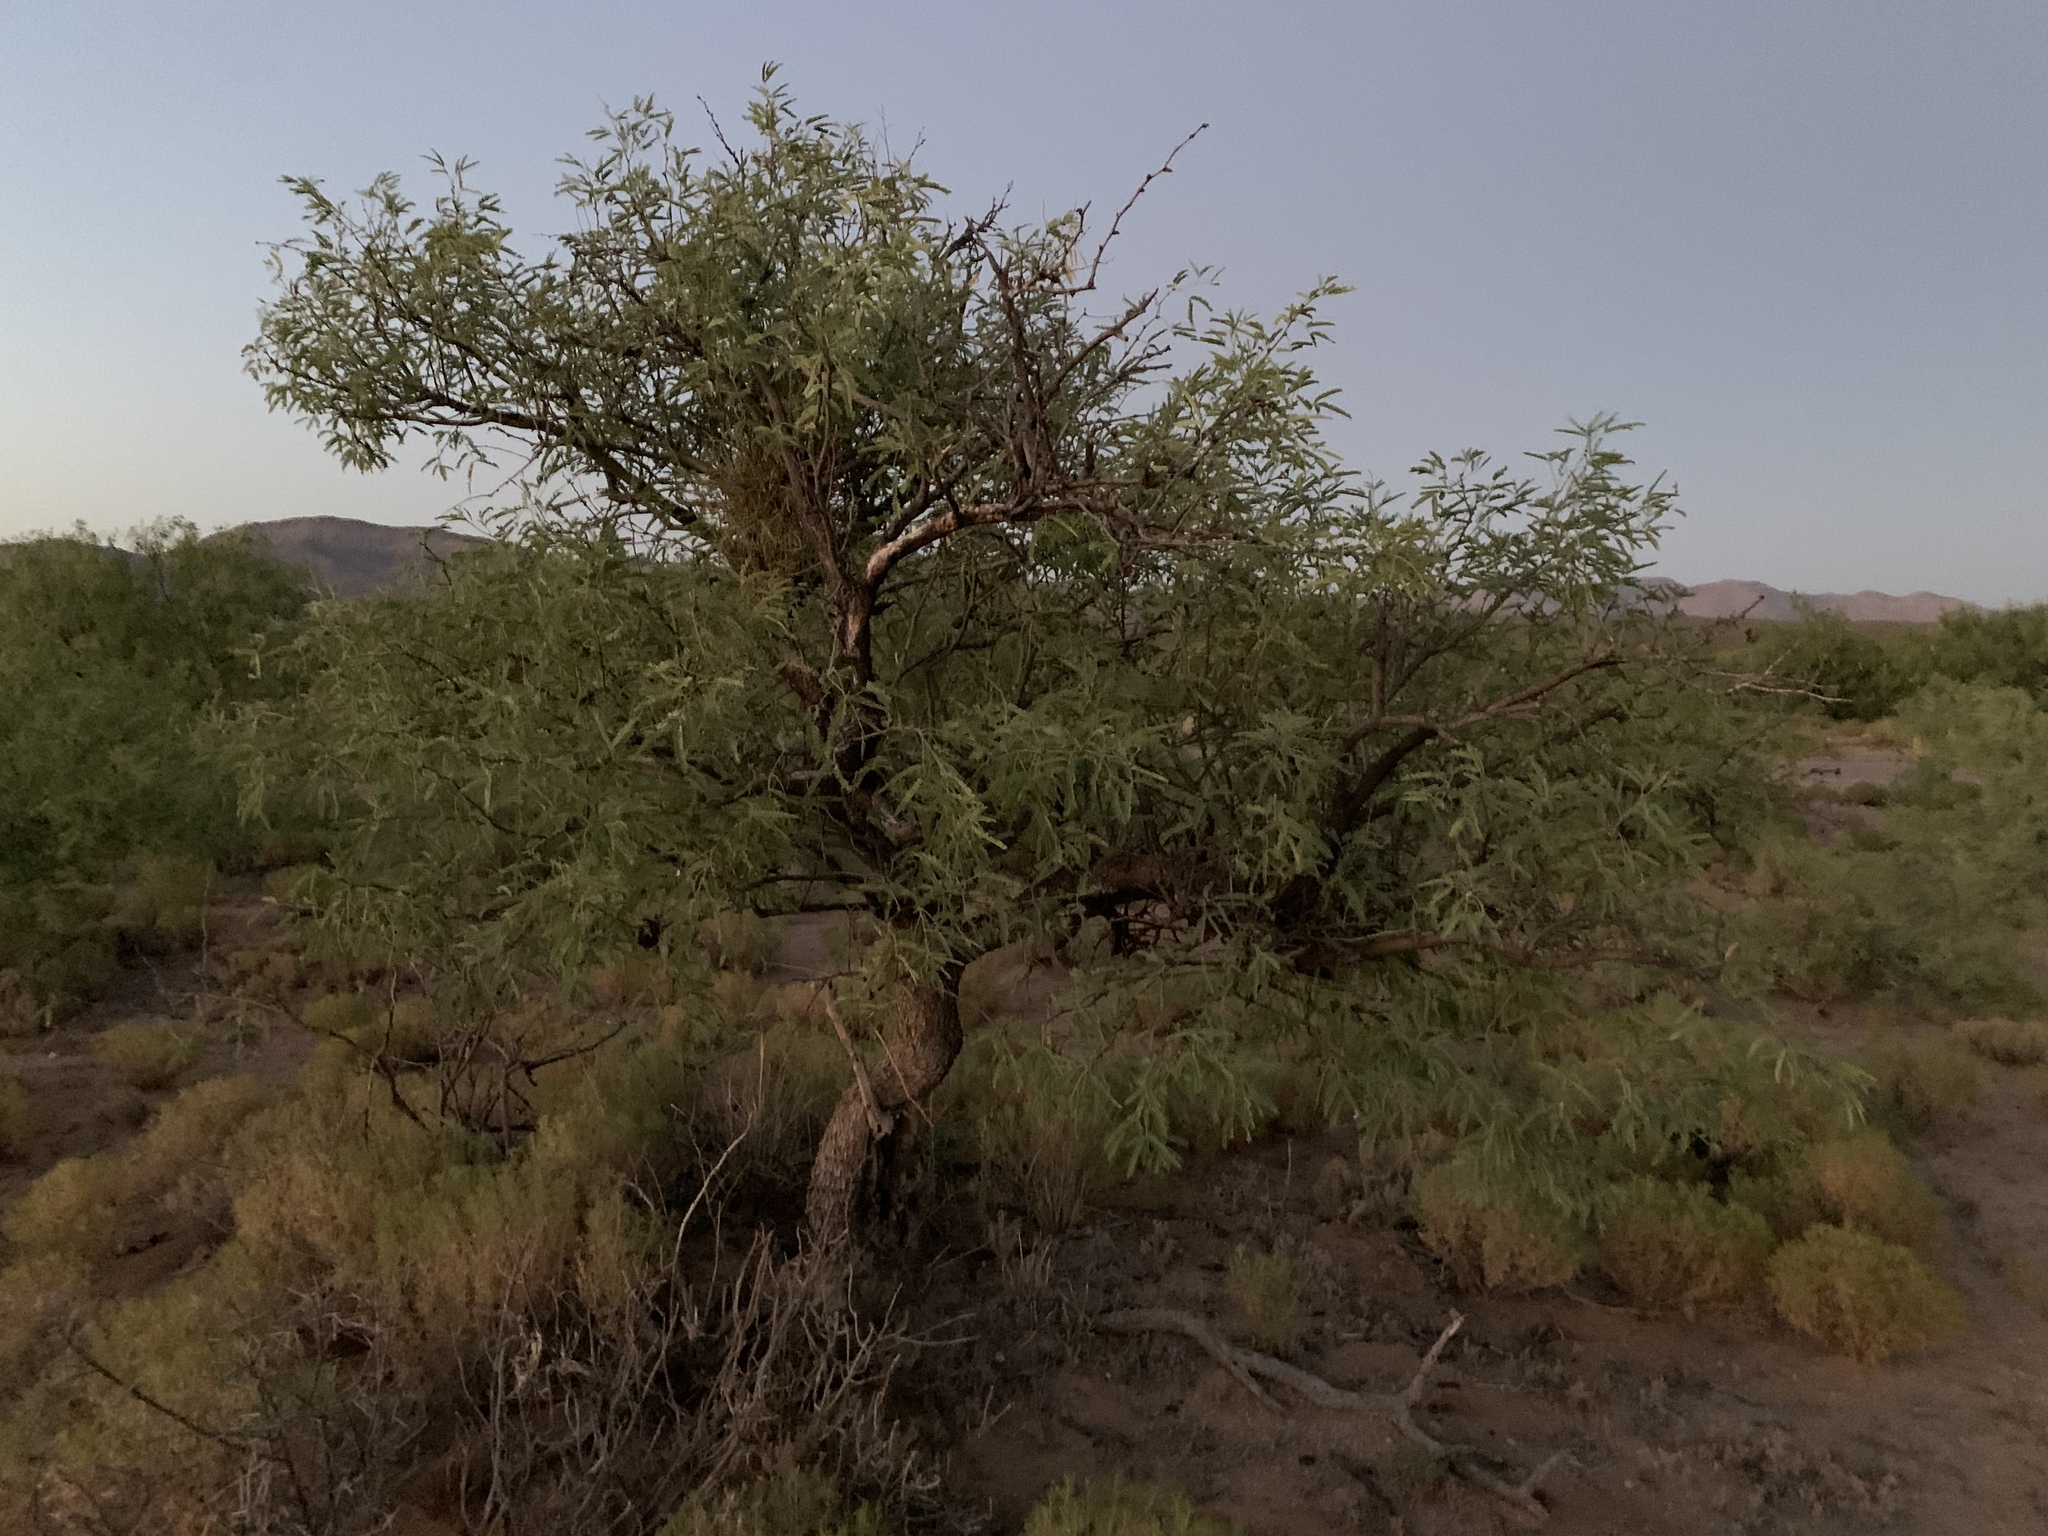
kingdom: Plantae
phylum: Tracheophyta
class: Magnoliopsida
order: Fabales
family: Fabaceae
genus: Prosopis
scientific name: Prosopis velutina
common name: Velvet mesquite
